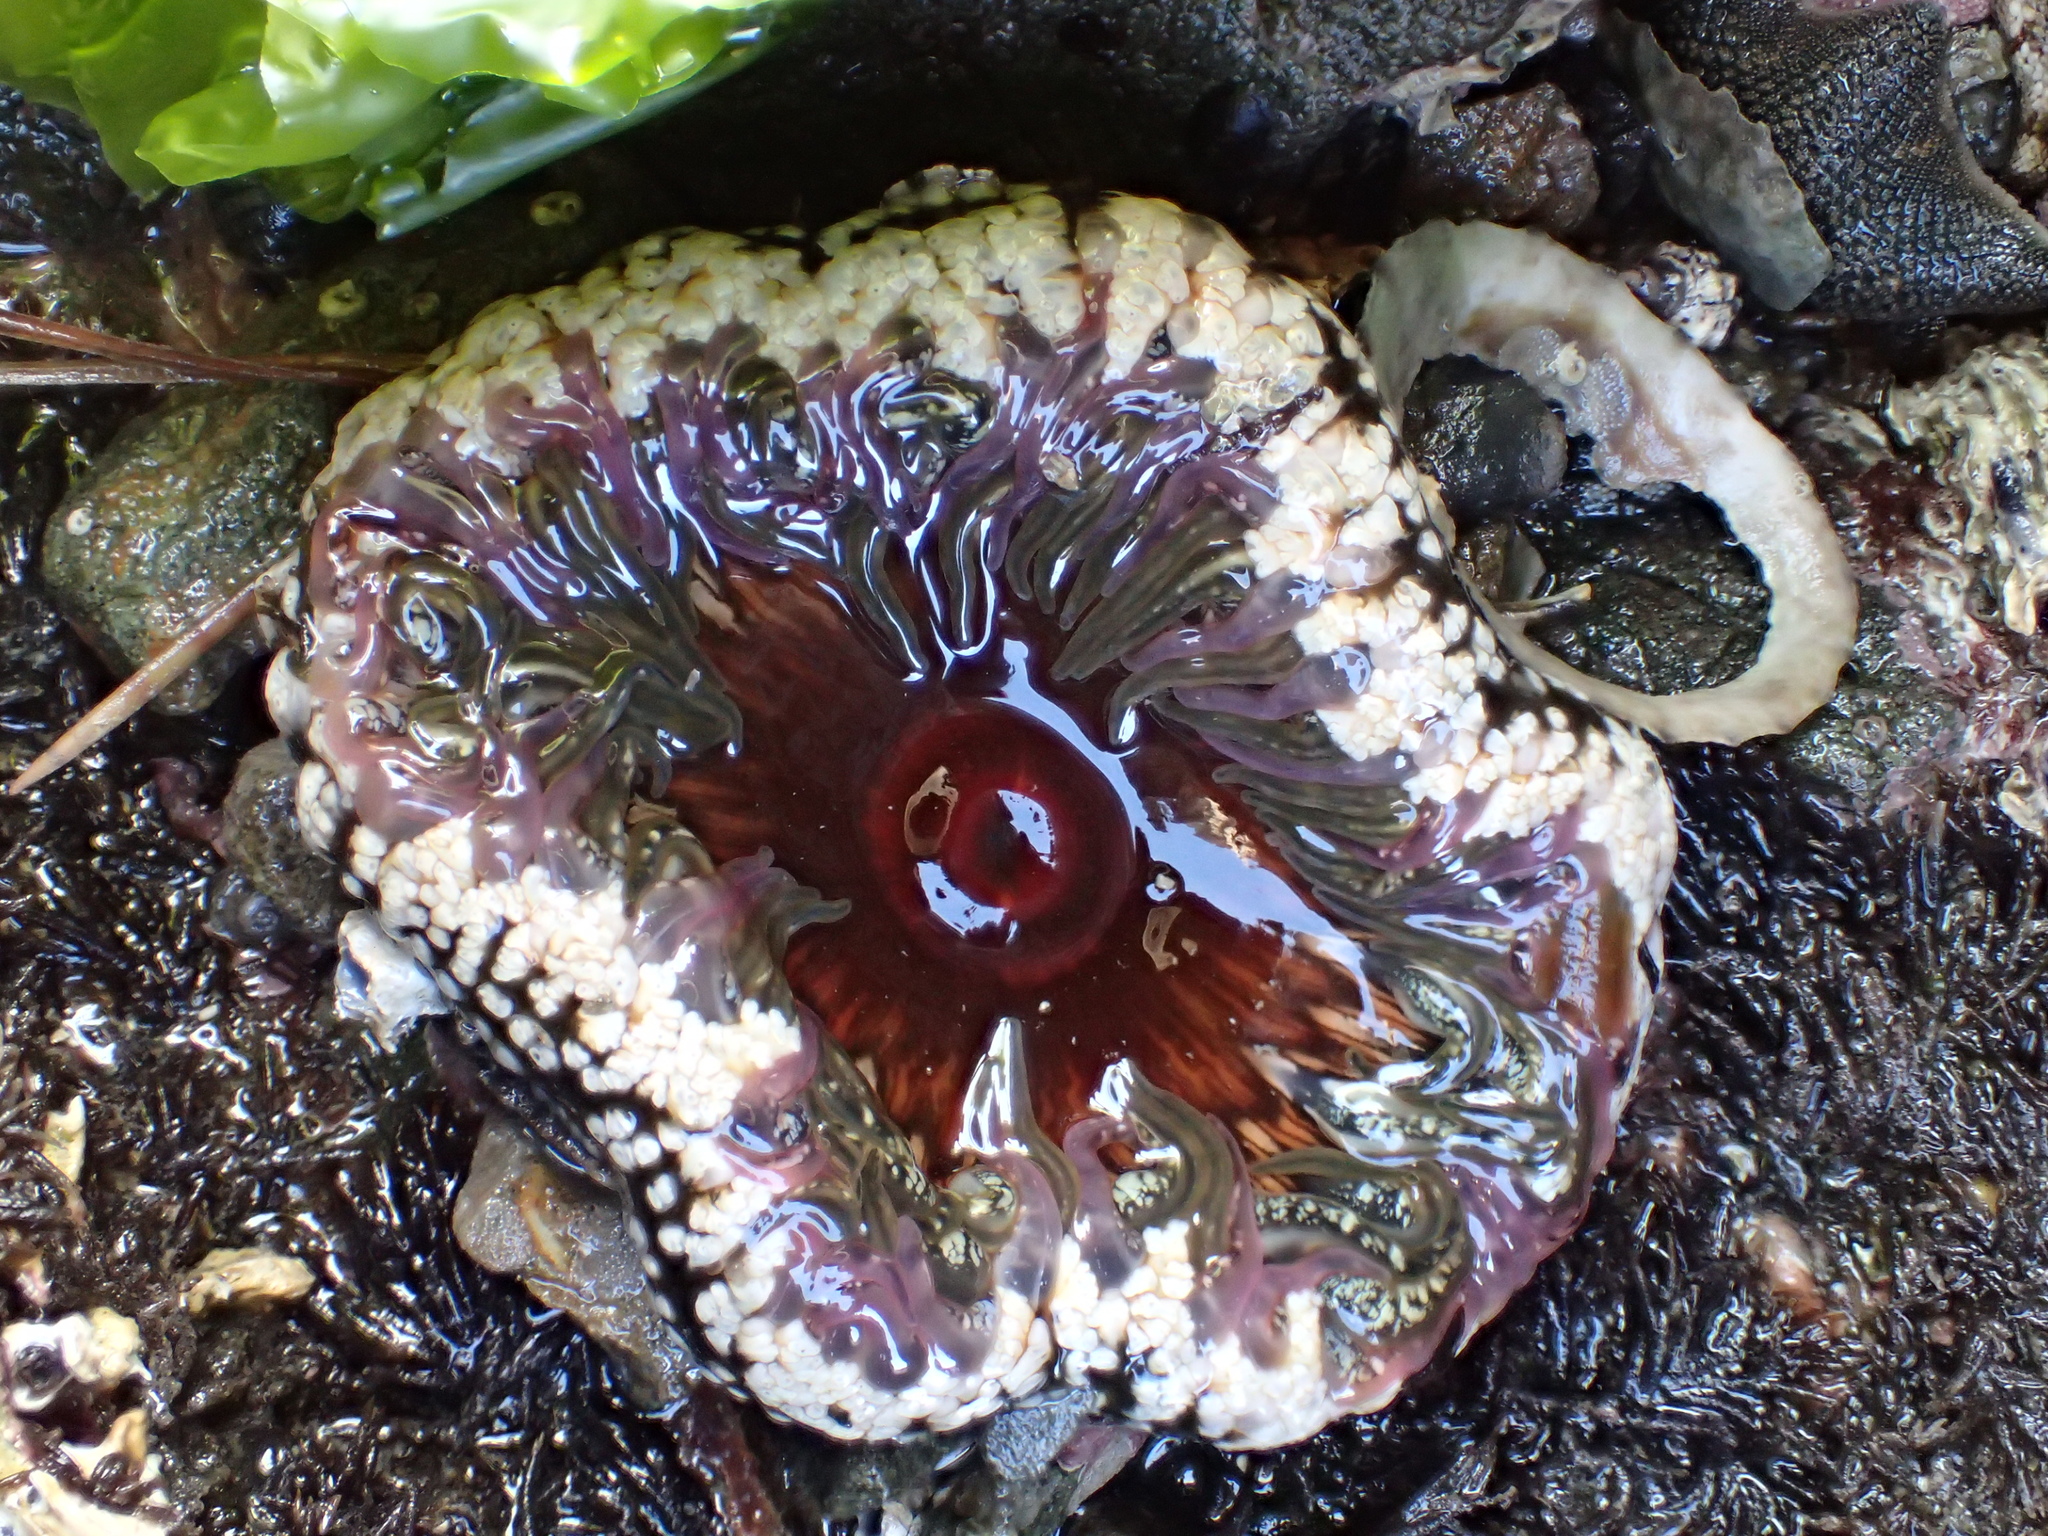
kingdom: Animalia
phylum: Cnidaria
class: Anthozoa
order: Actiniaria
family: Actiniidae
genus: Oulactis
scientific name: Oulactis muscosa
